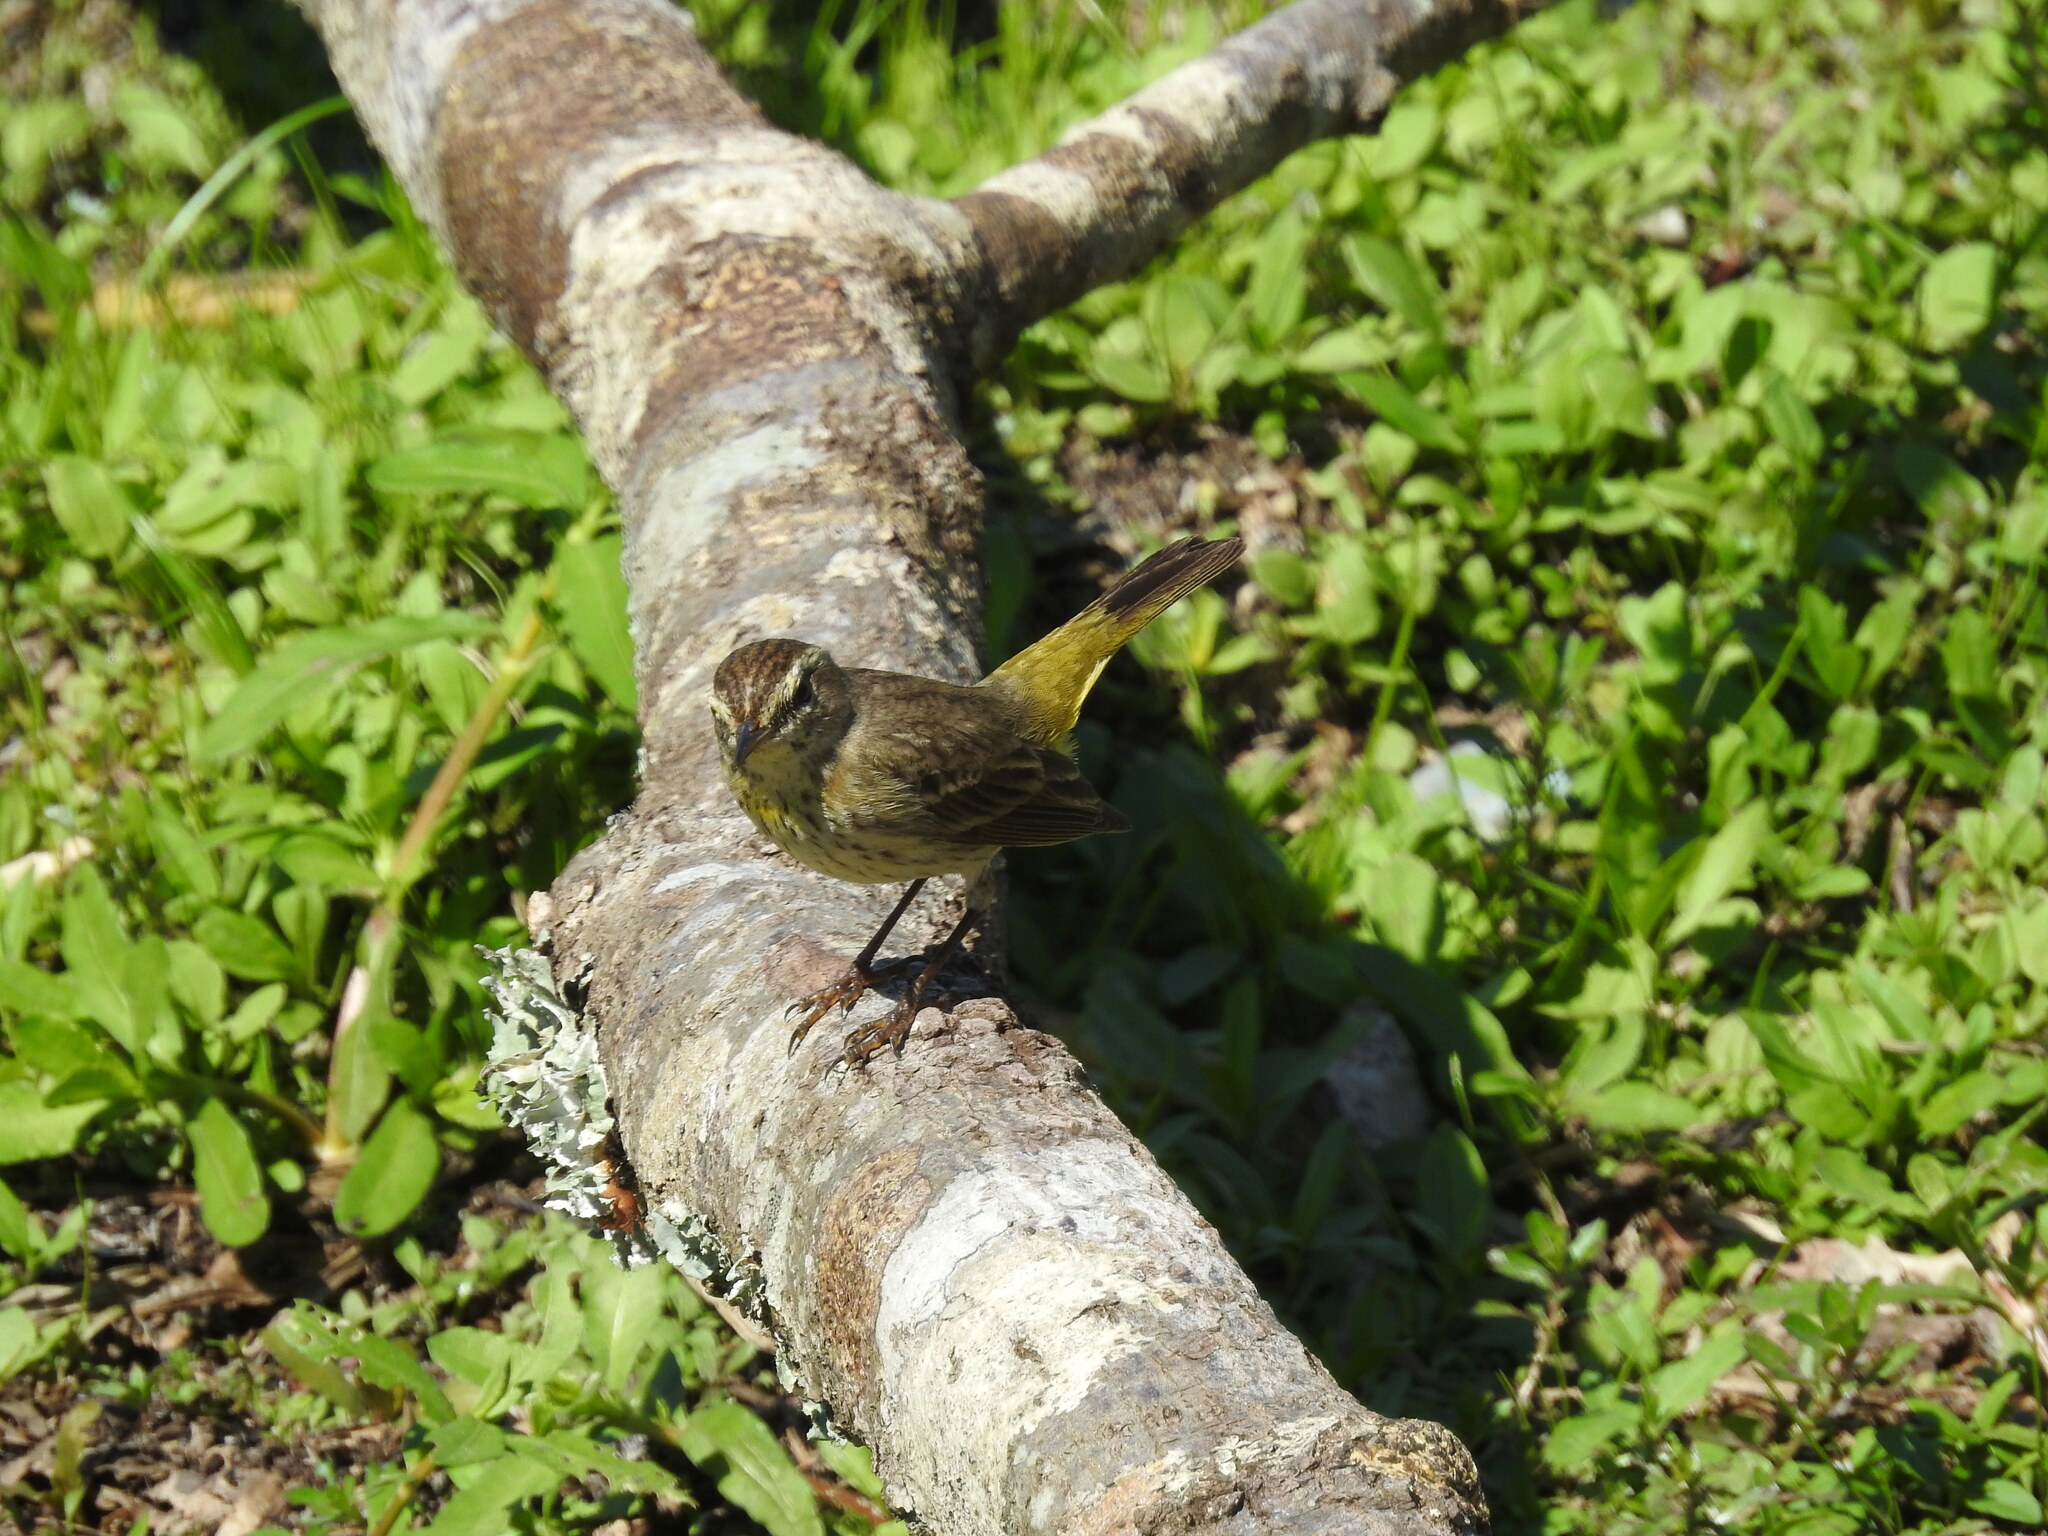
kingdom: Animalia
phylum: Chordata
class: Aves
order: Passeriformes
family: Parulidae
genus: Setophaga
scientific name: Setophaga palmarum
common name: Palm warbler
